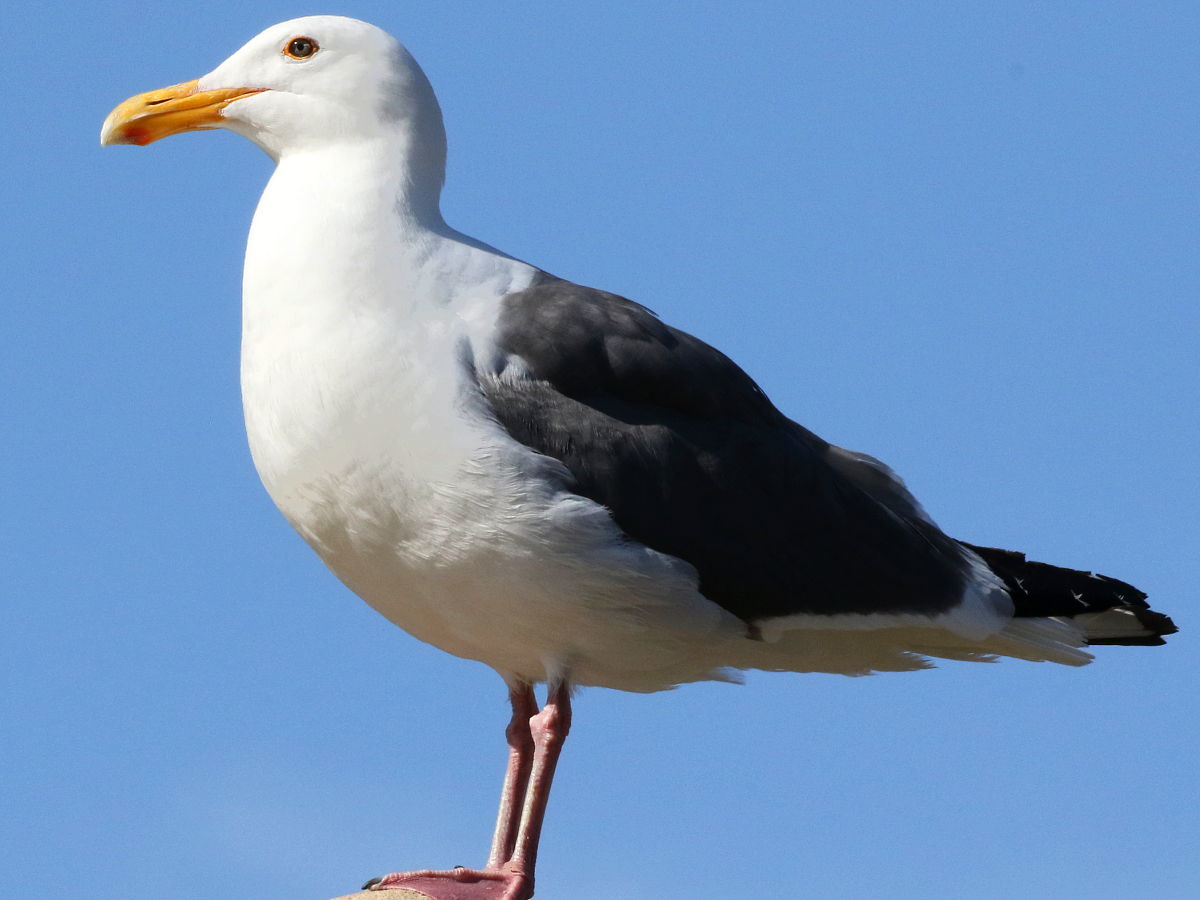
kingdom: Animalia
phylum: Chordata
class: Aves
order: Charadriiformes
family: Laridae
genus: Larus
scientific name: Larus occidentalis
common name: Western gull
